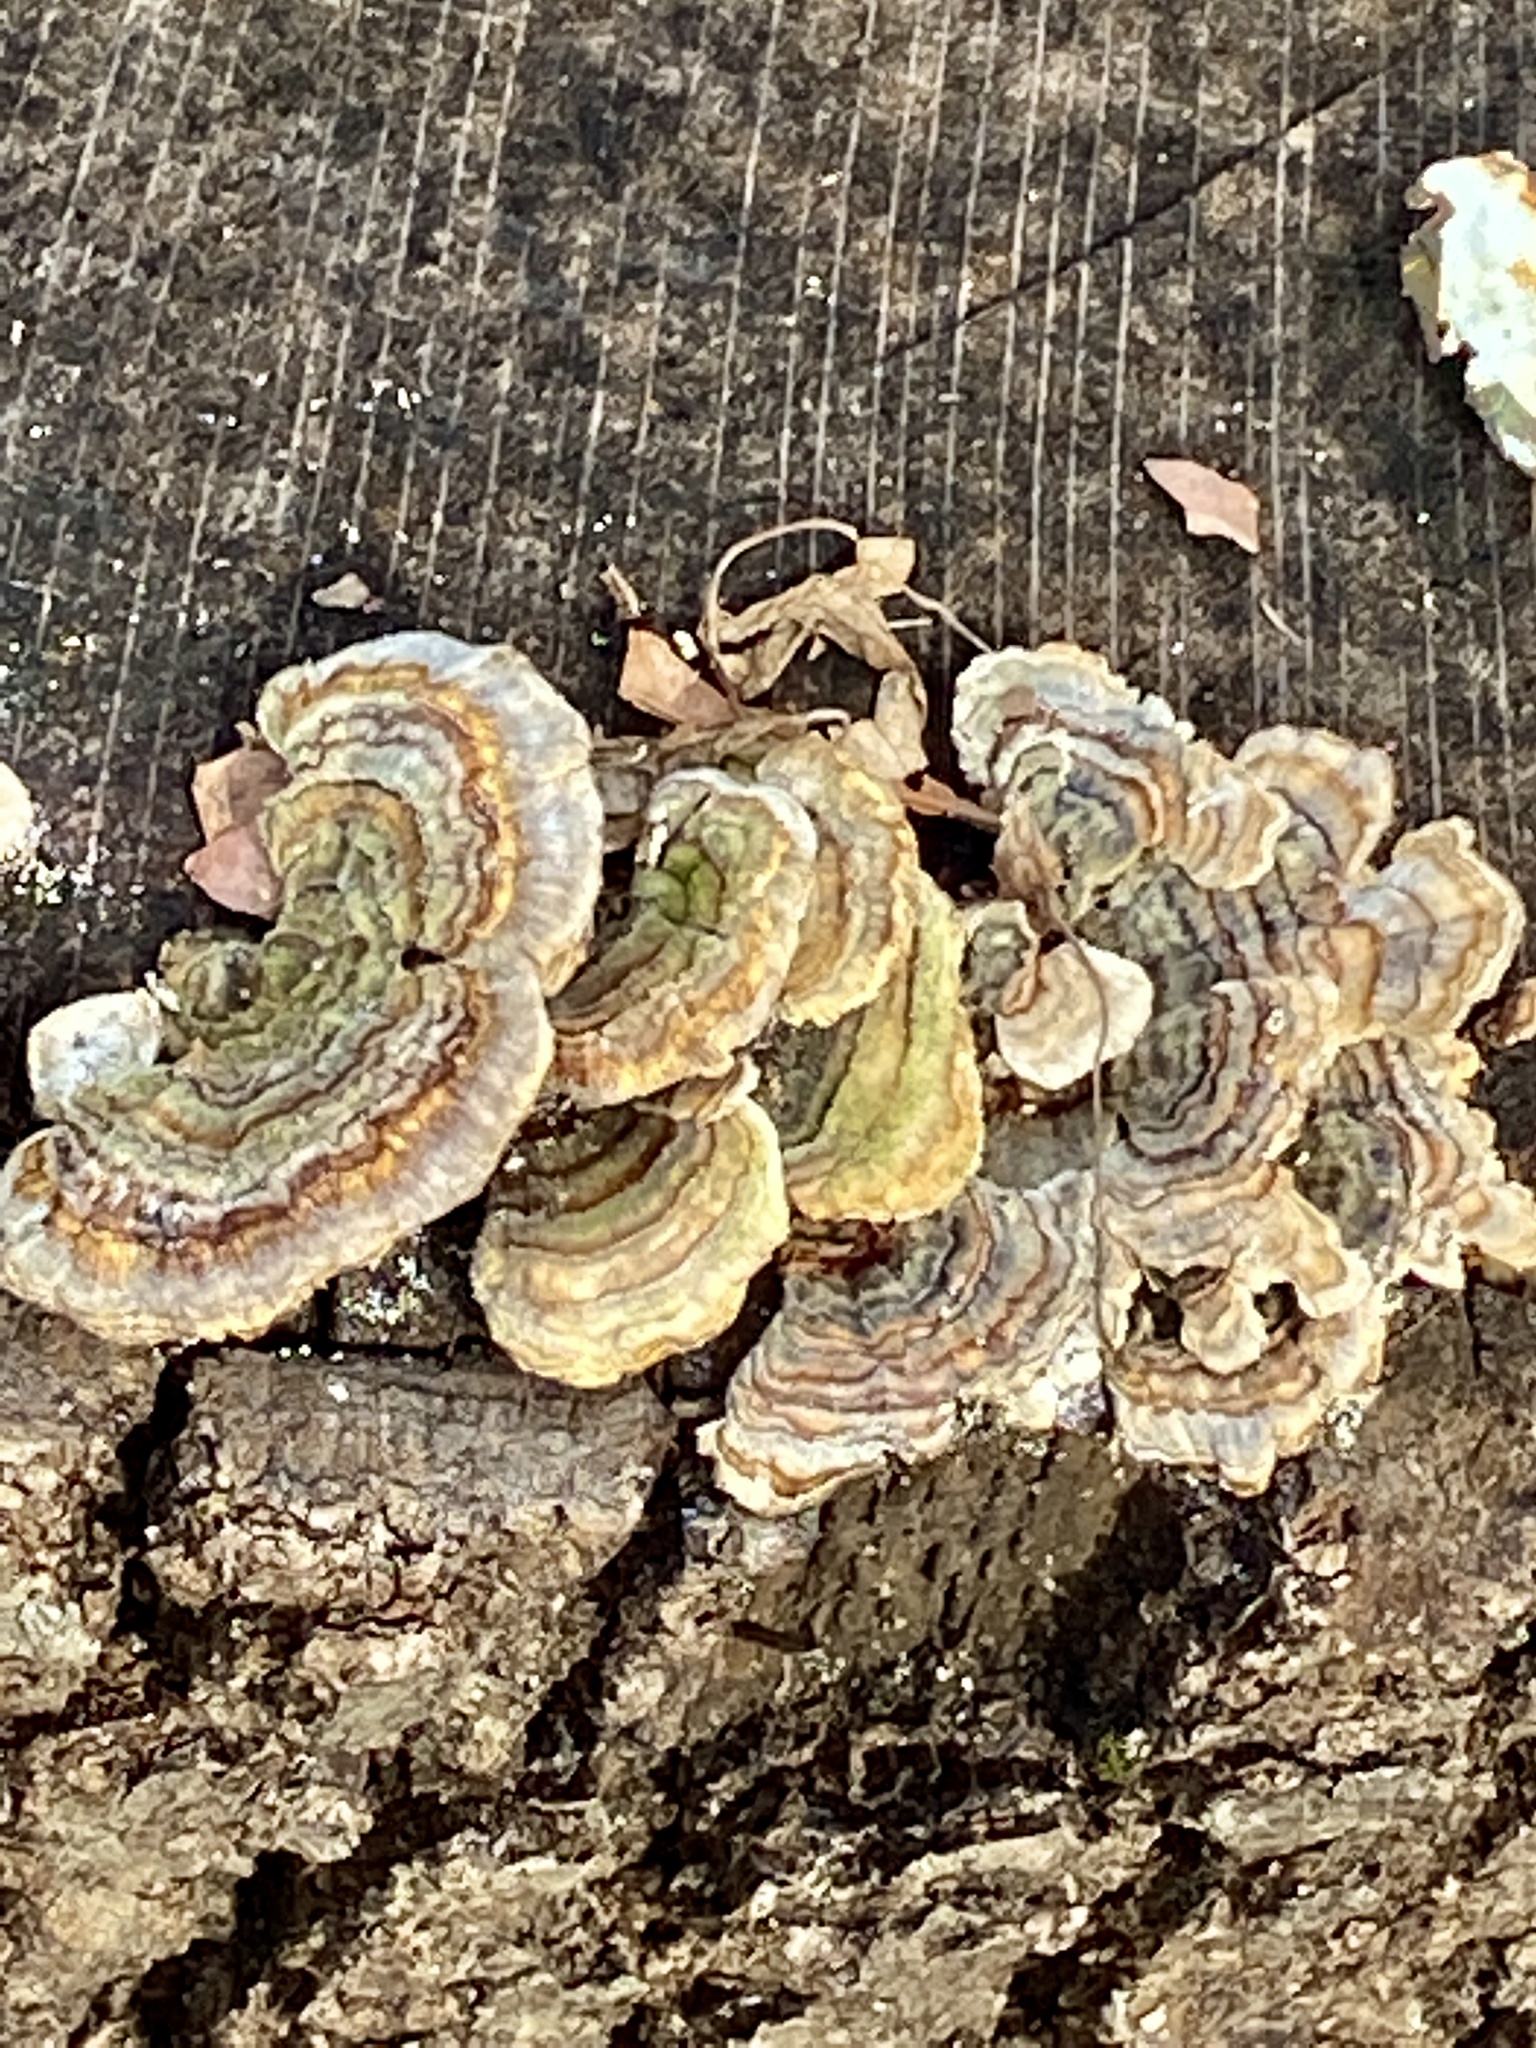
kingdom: Fungi
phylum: Basidiomycota
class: Agaricomycetes
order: Polyporales
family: Polyporaceae
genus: Trametes
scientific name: Trametes versicolor
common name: Turkeytail
